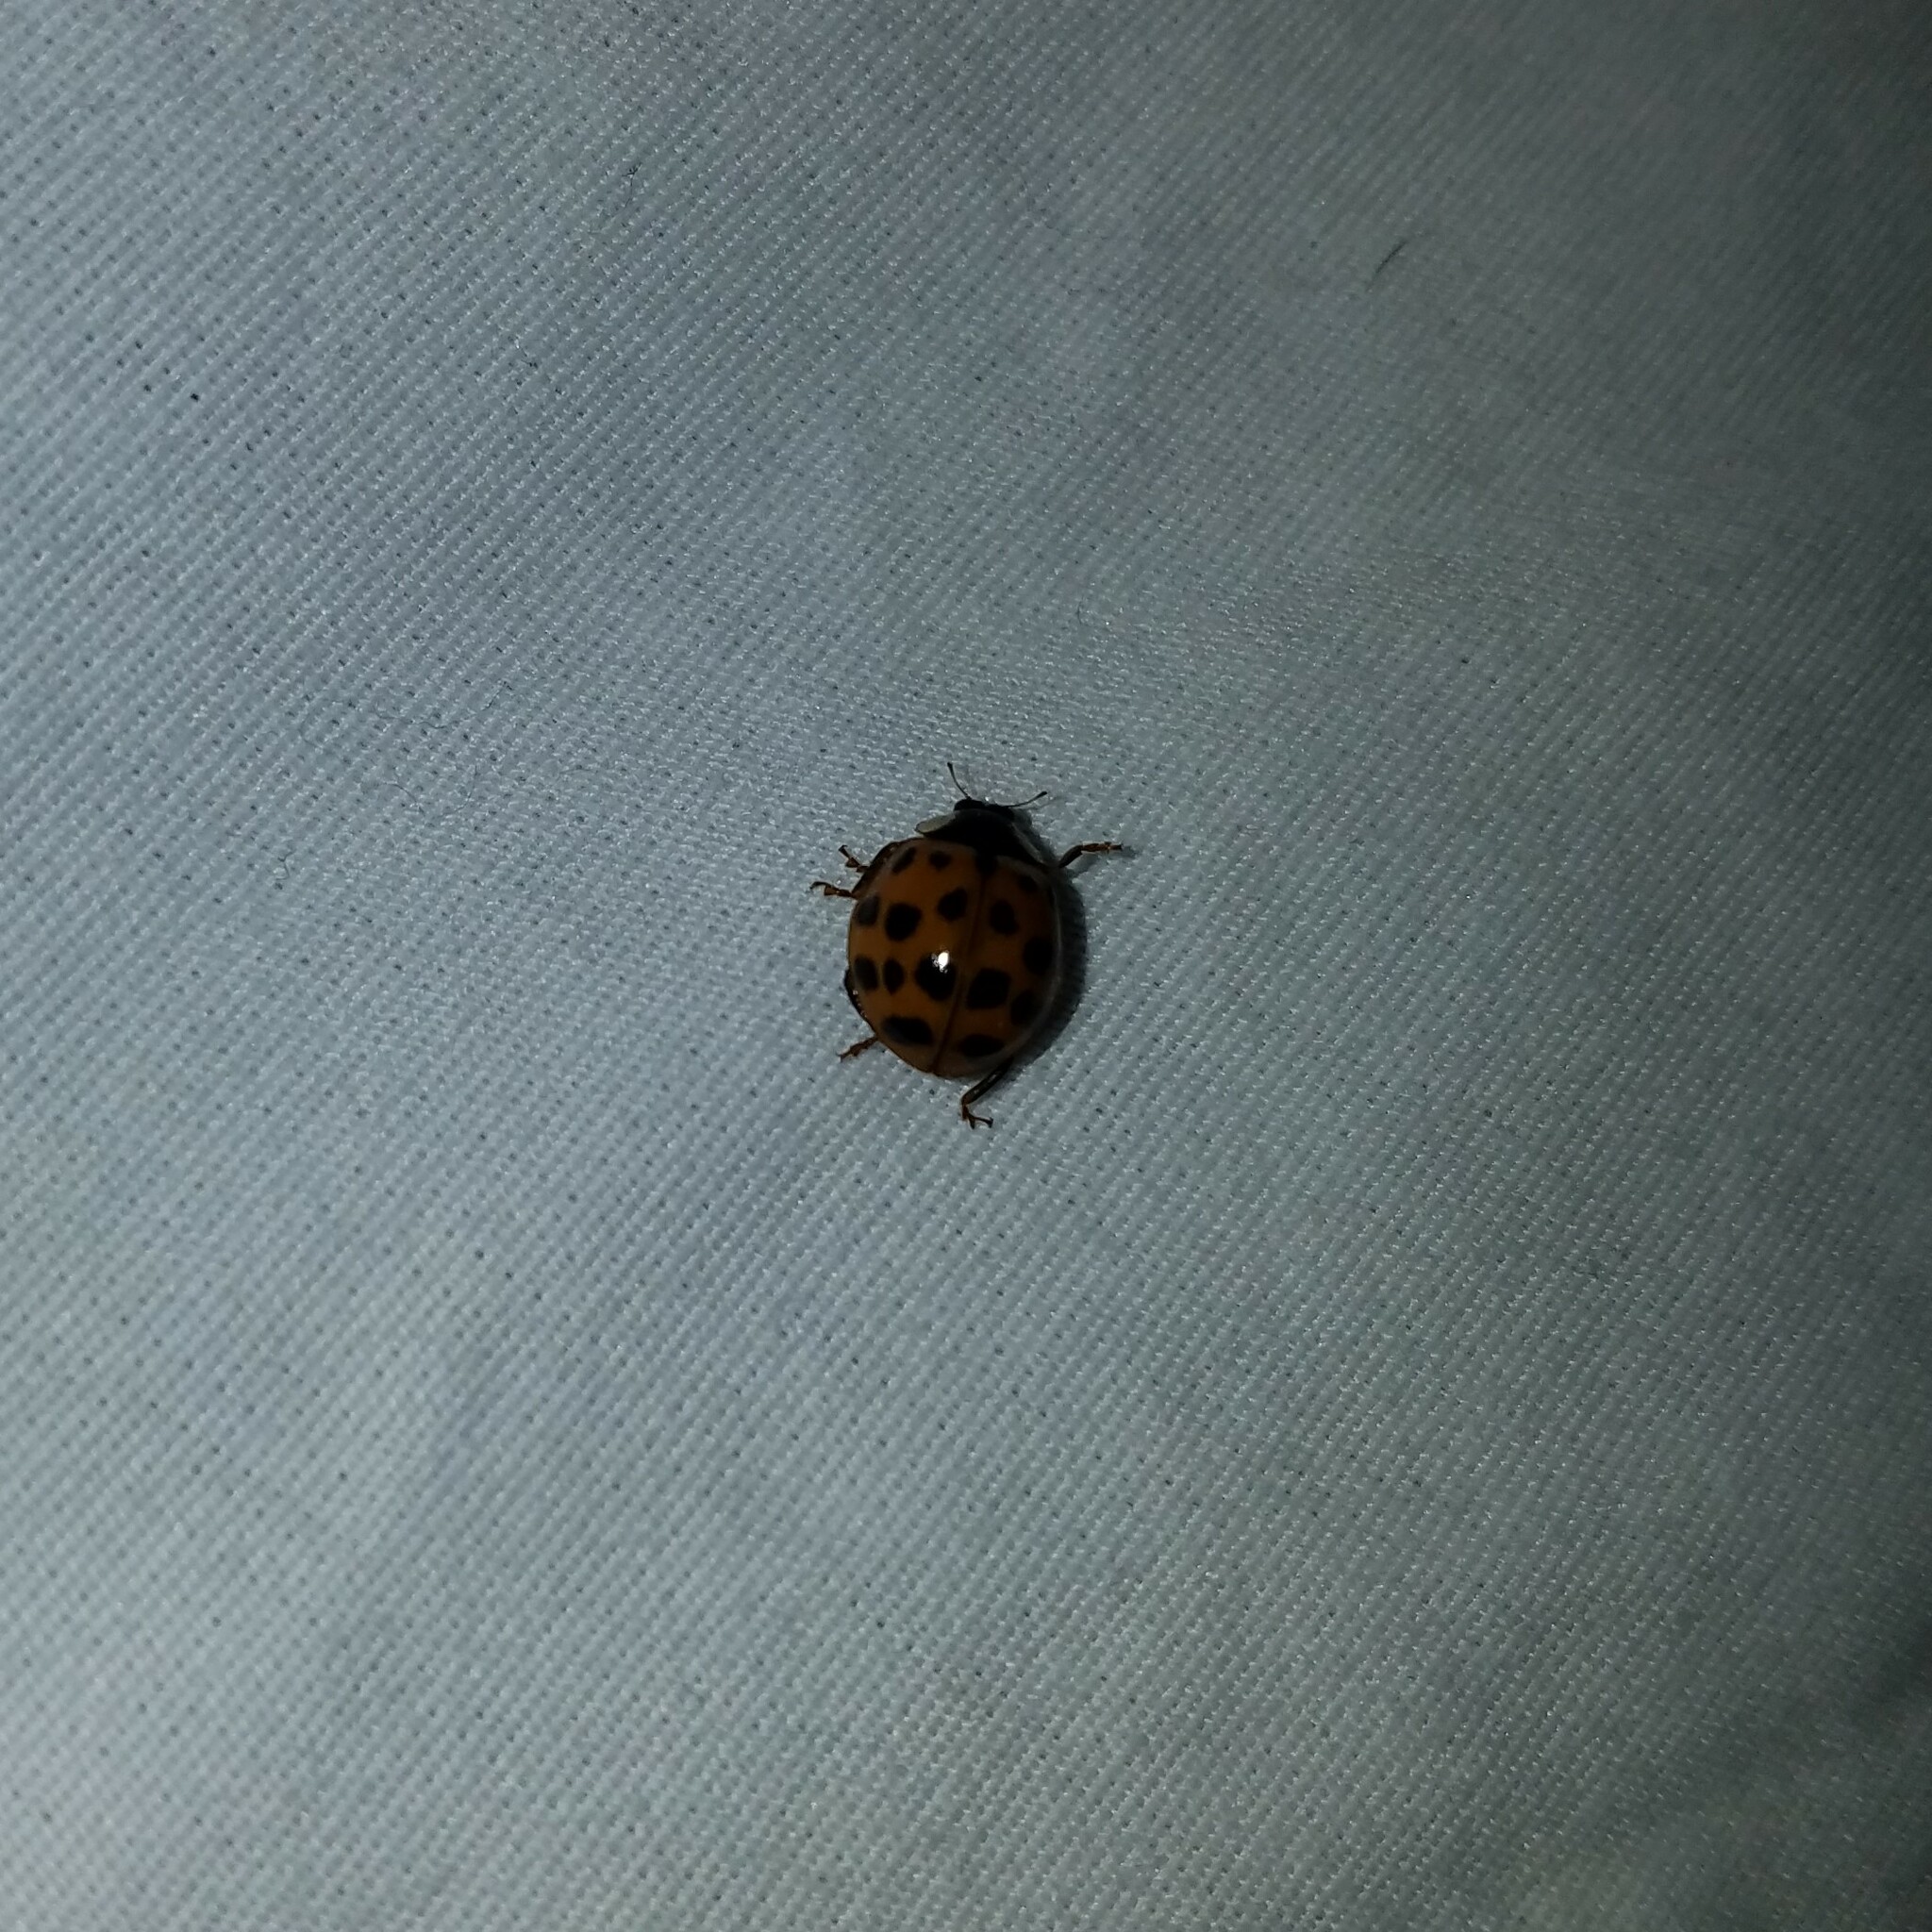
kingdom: Animalia
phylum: Arthropoda
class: Insecta
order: Coleoptera
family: Coccinellidae
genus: Harmonia
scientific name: Harmonia axyridis
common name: Harlequin ladybird
